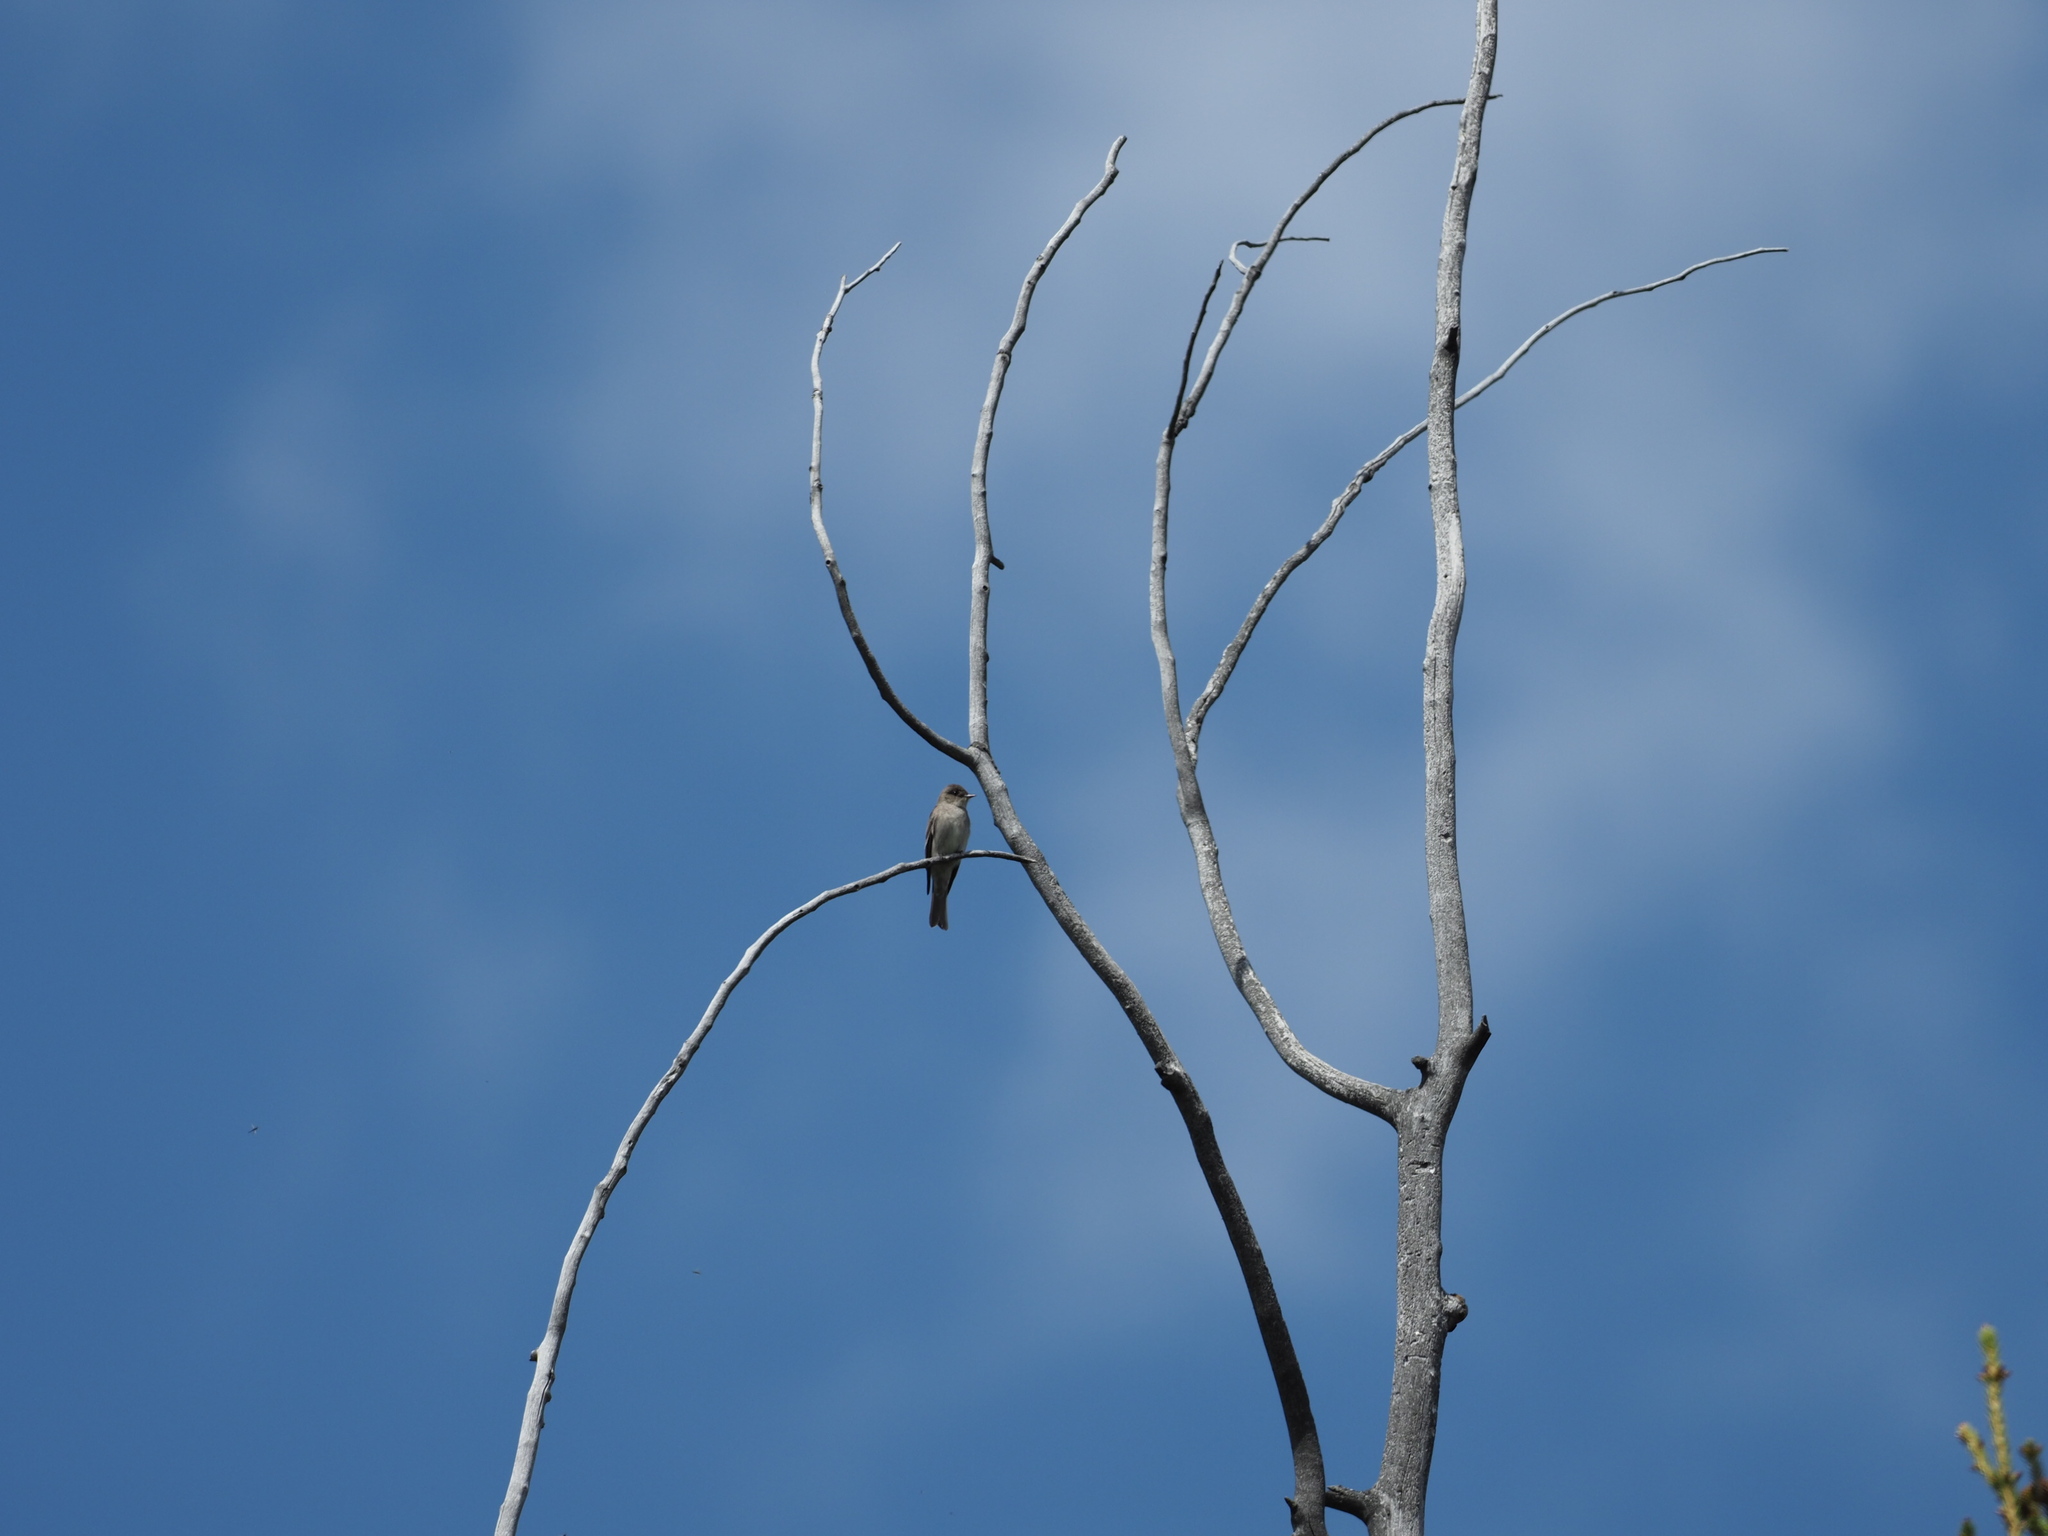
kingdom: Animalia
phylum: Chordata
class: Aves
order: Passeriformes
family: Tyrannidae
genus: Contopus
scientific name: Contopus sordidulus
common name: Western wood-pewee
